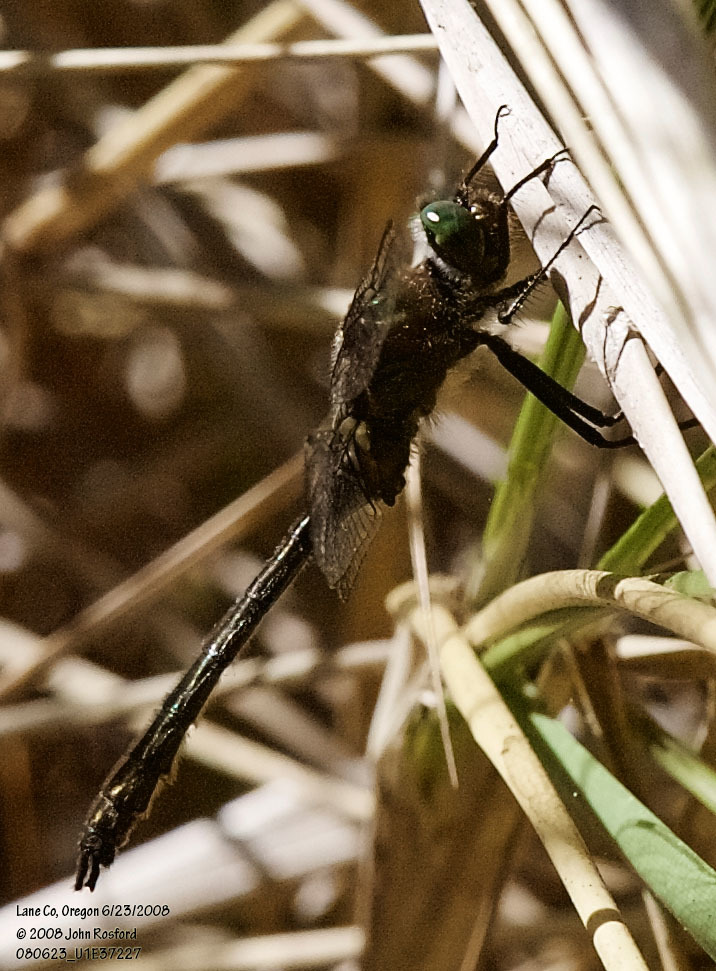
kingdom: Animalia
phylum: Arthropoda
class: Insecta
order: Odonata
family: Corduliidae
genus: Cordulia
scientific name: Cordulia shurtleffii
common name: American emerald
